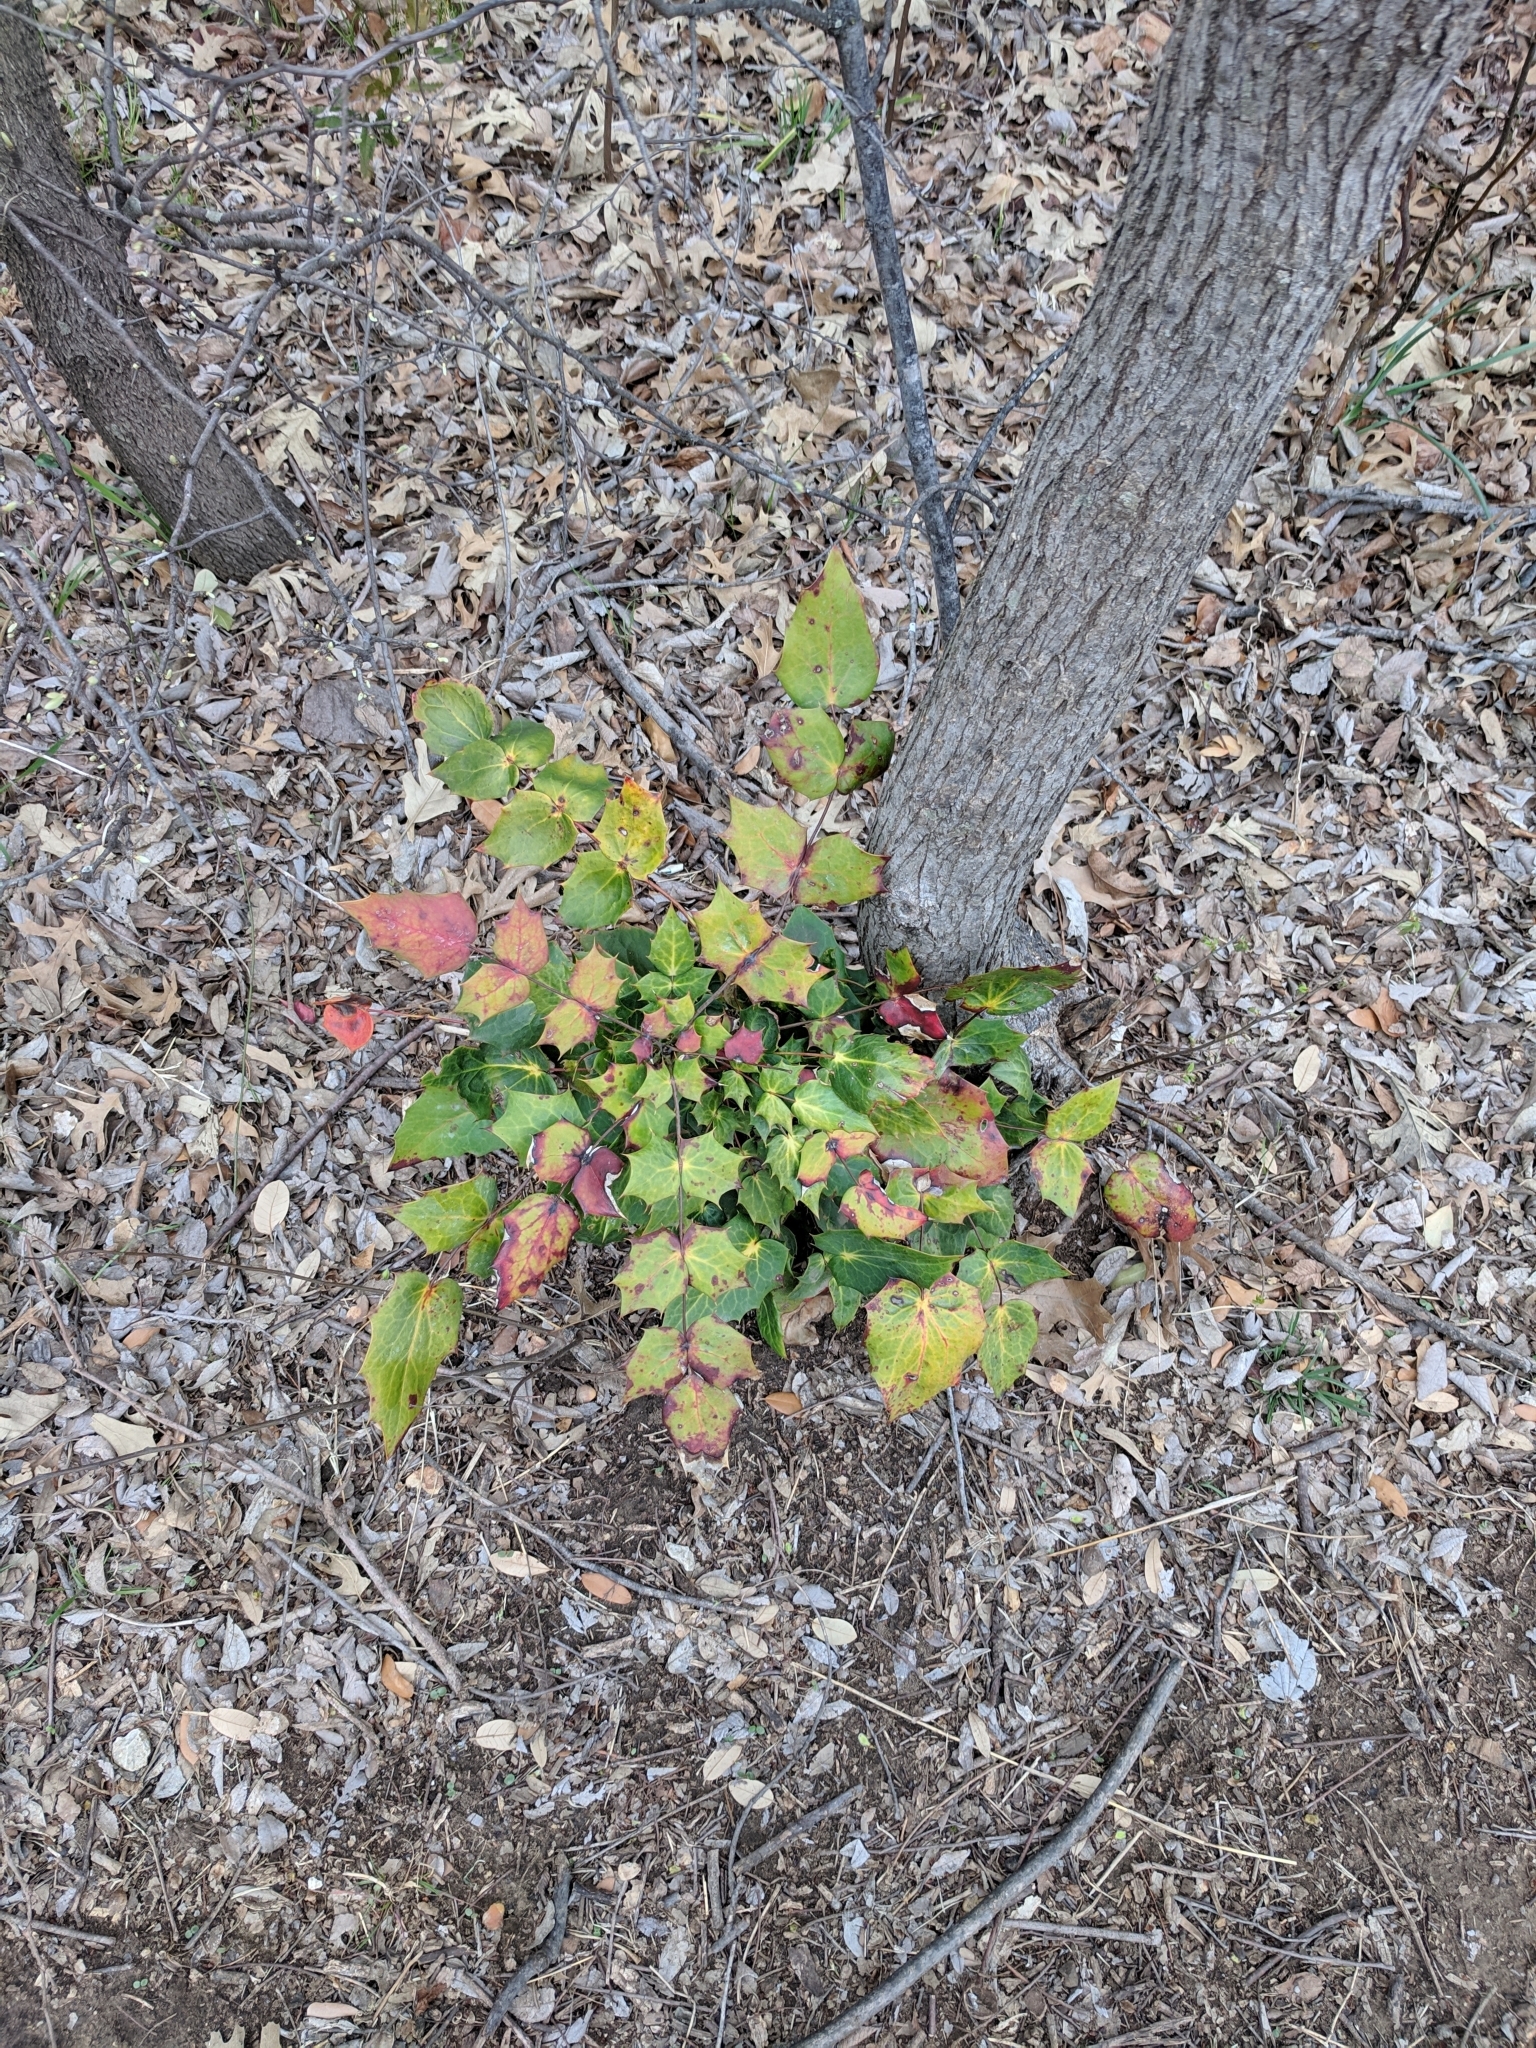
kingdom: Plantae
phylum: Tracheophyta
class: Magnoliopsida
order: Ranunculales
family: Berberidaceae
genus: Mahonia
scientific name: Mahonia bealei
